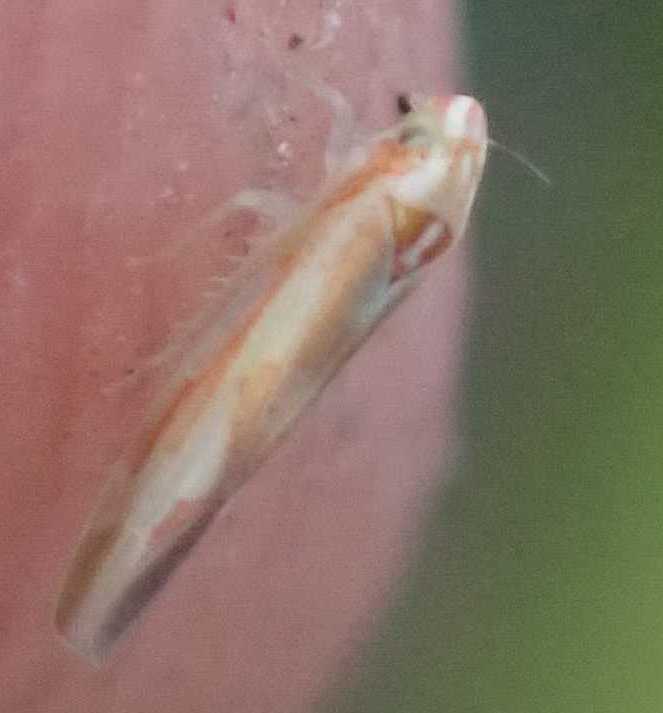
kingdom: Animalia
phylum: Arthropoda
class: Insecta
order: Hemiptera
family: Cicadellidae
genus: Zygina
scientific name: Zygina
